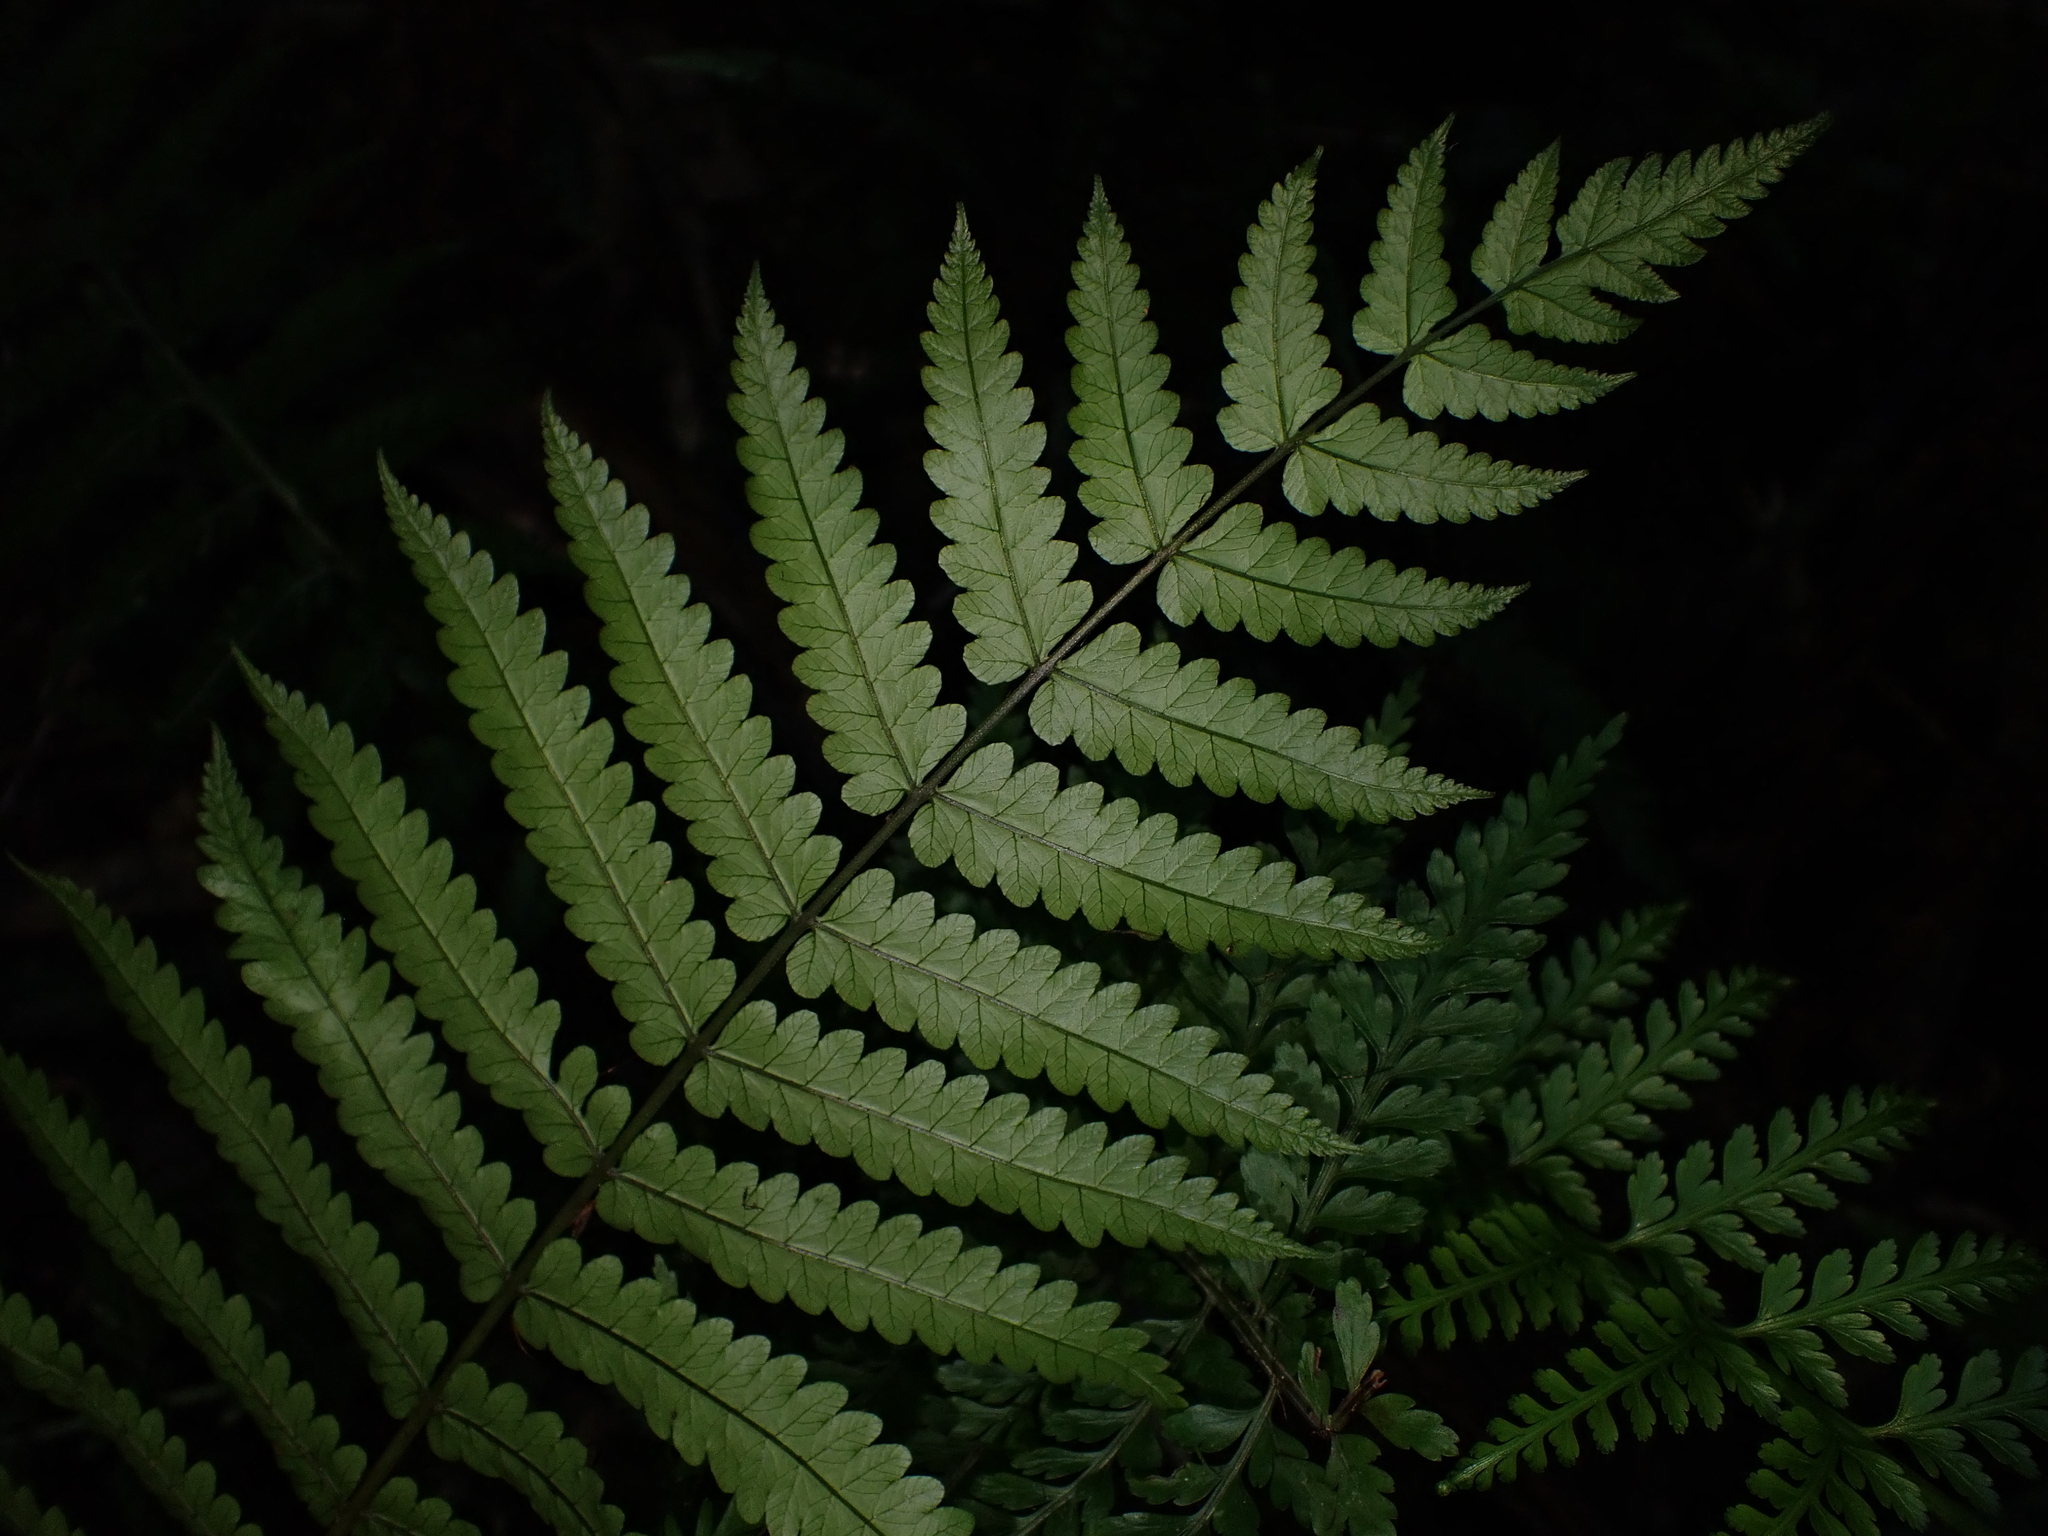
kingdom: Plantae
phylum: Tracheophyta
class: Polypodiopsida
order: Polypodiales
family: Thelypteridaceae
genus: Pakau
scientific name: Pakau pennigera
